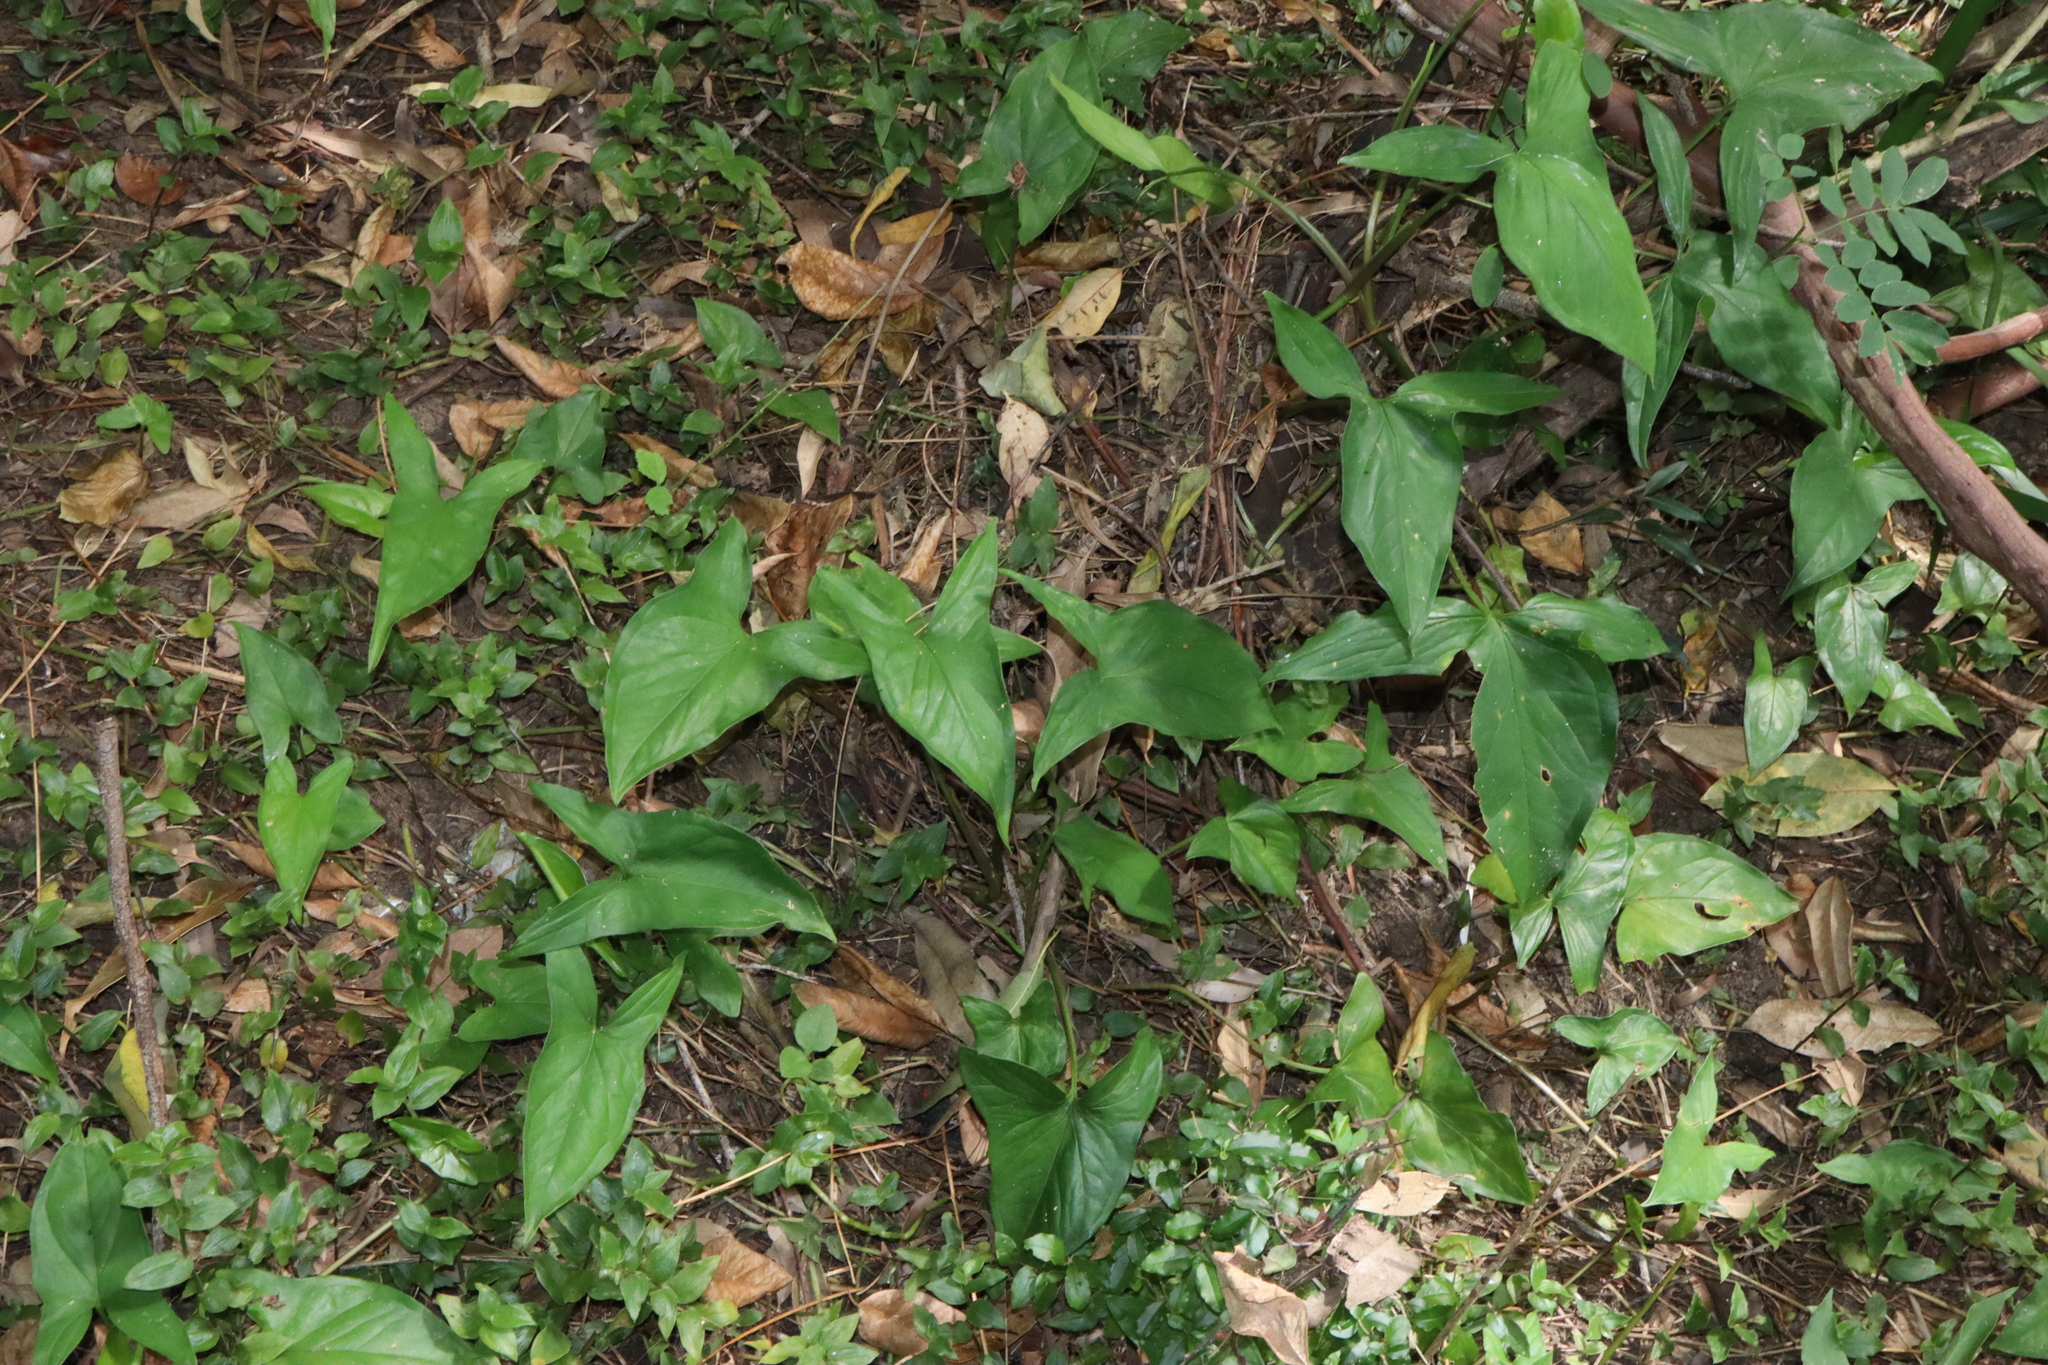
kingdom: Plantae
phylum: Tracheophyta
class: Liliopsida
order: Alismatales
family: Araceae
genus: Syngonium
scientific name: Syngonium podophyllum
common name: American evergreen
